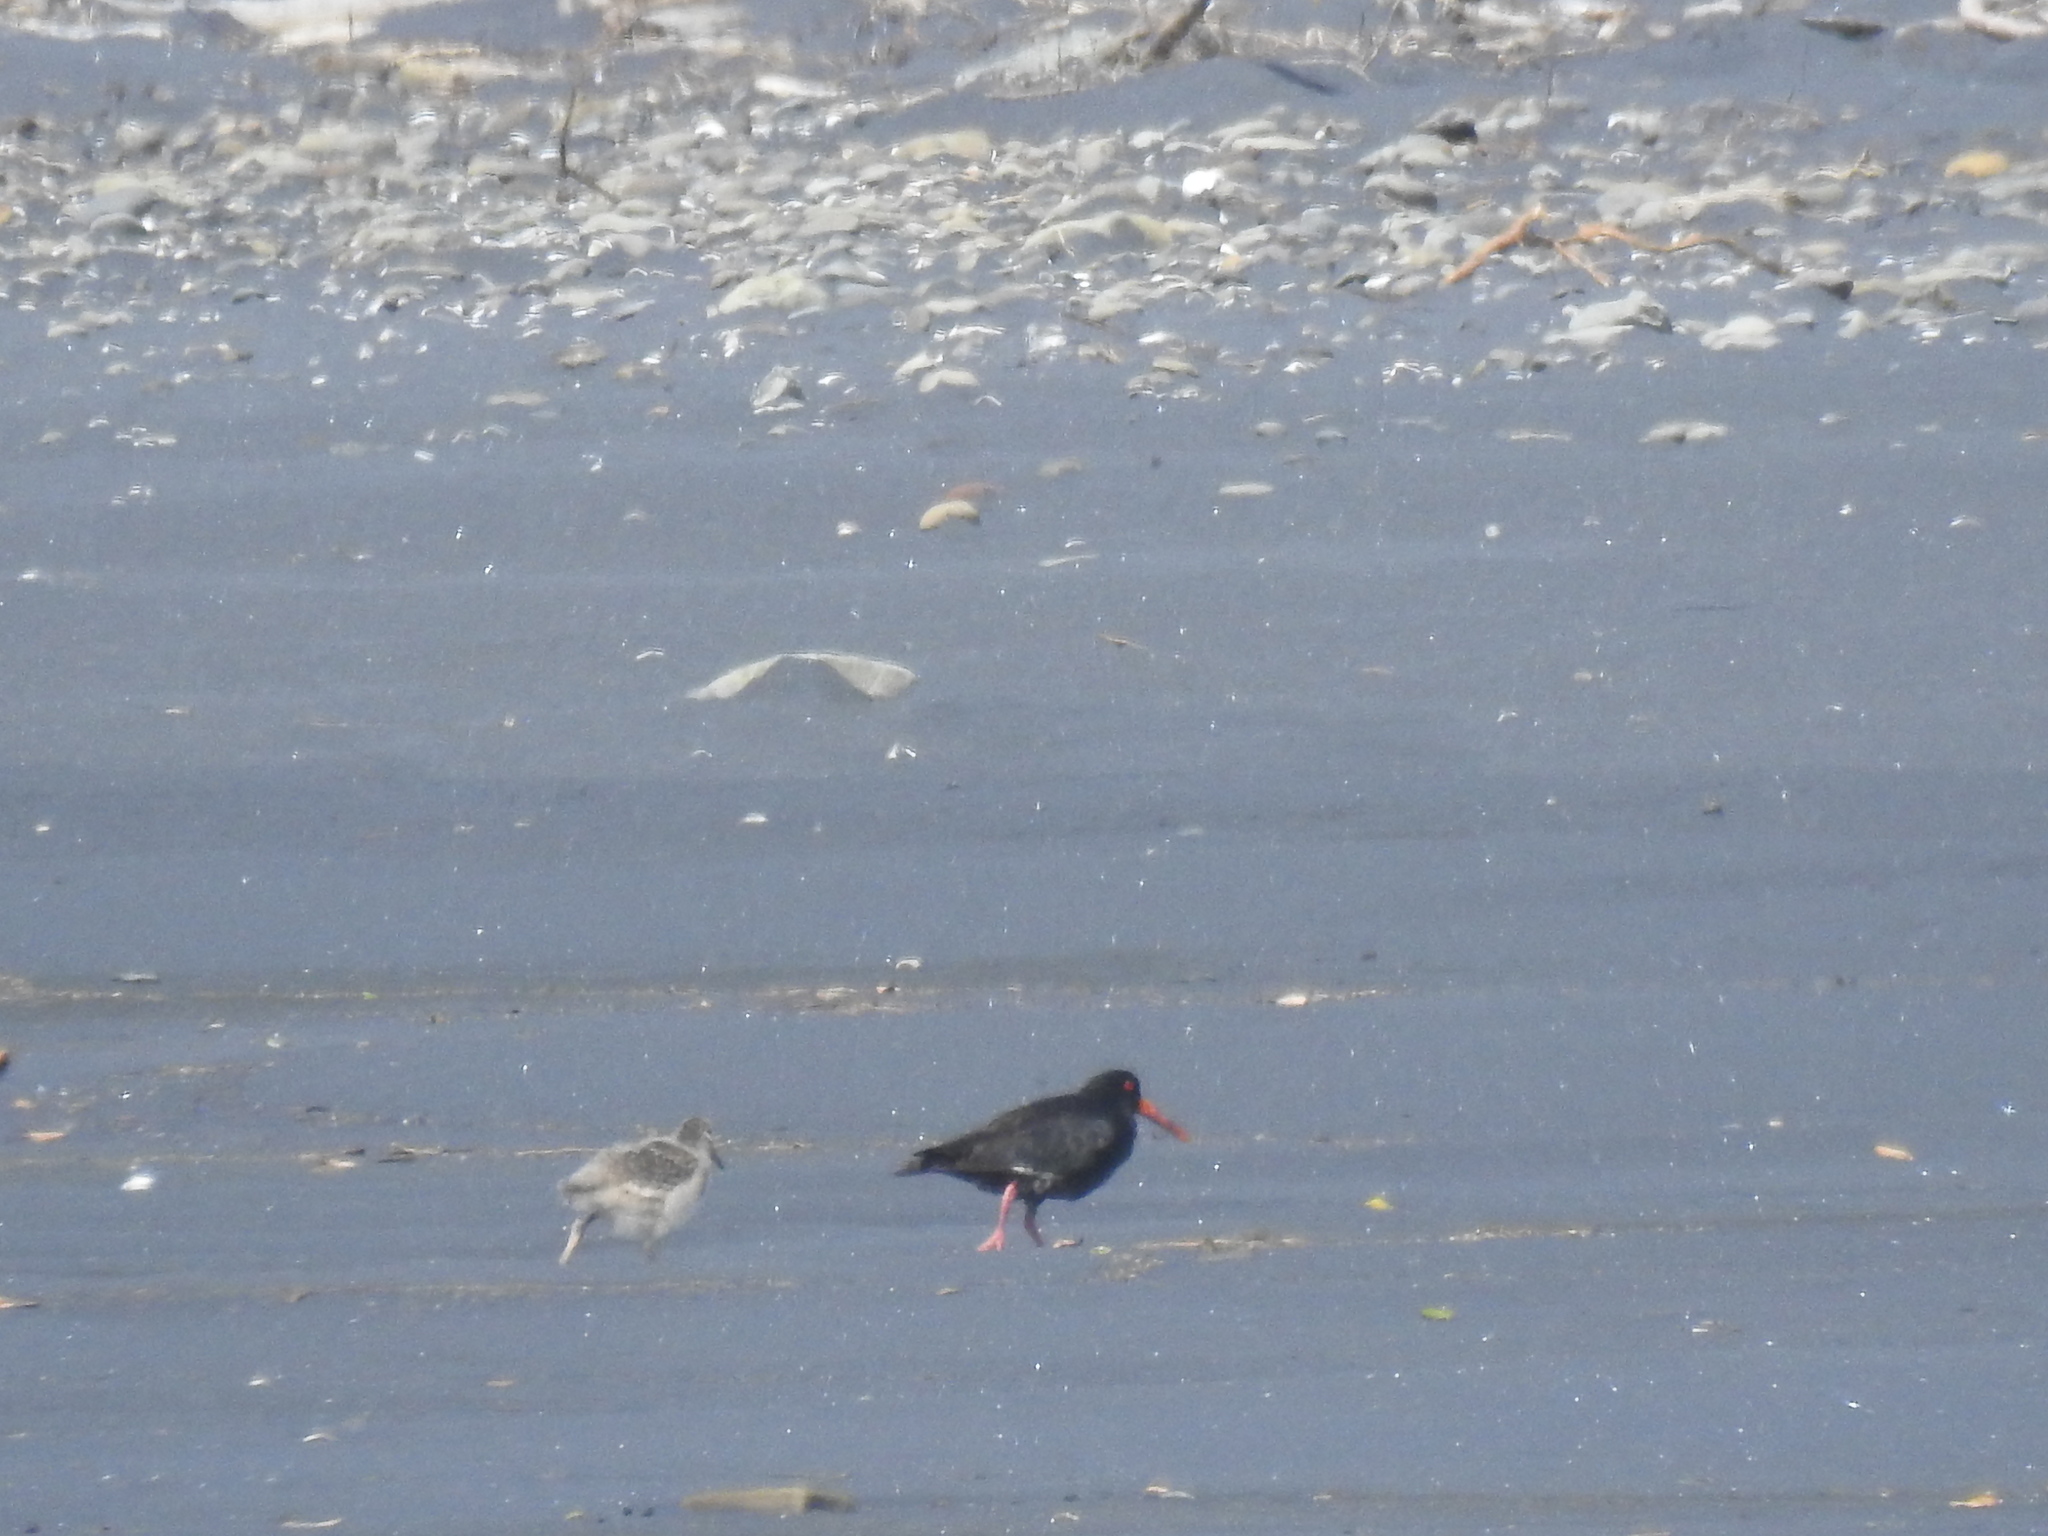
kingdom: Animalia
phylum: Chordata
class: Aves
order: Charadriiformes
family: Haematopodidae
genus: Haematopus
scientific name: Haematopus unicolor
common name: Variable oystercatcher
